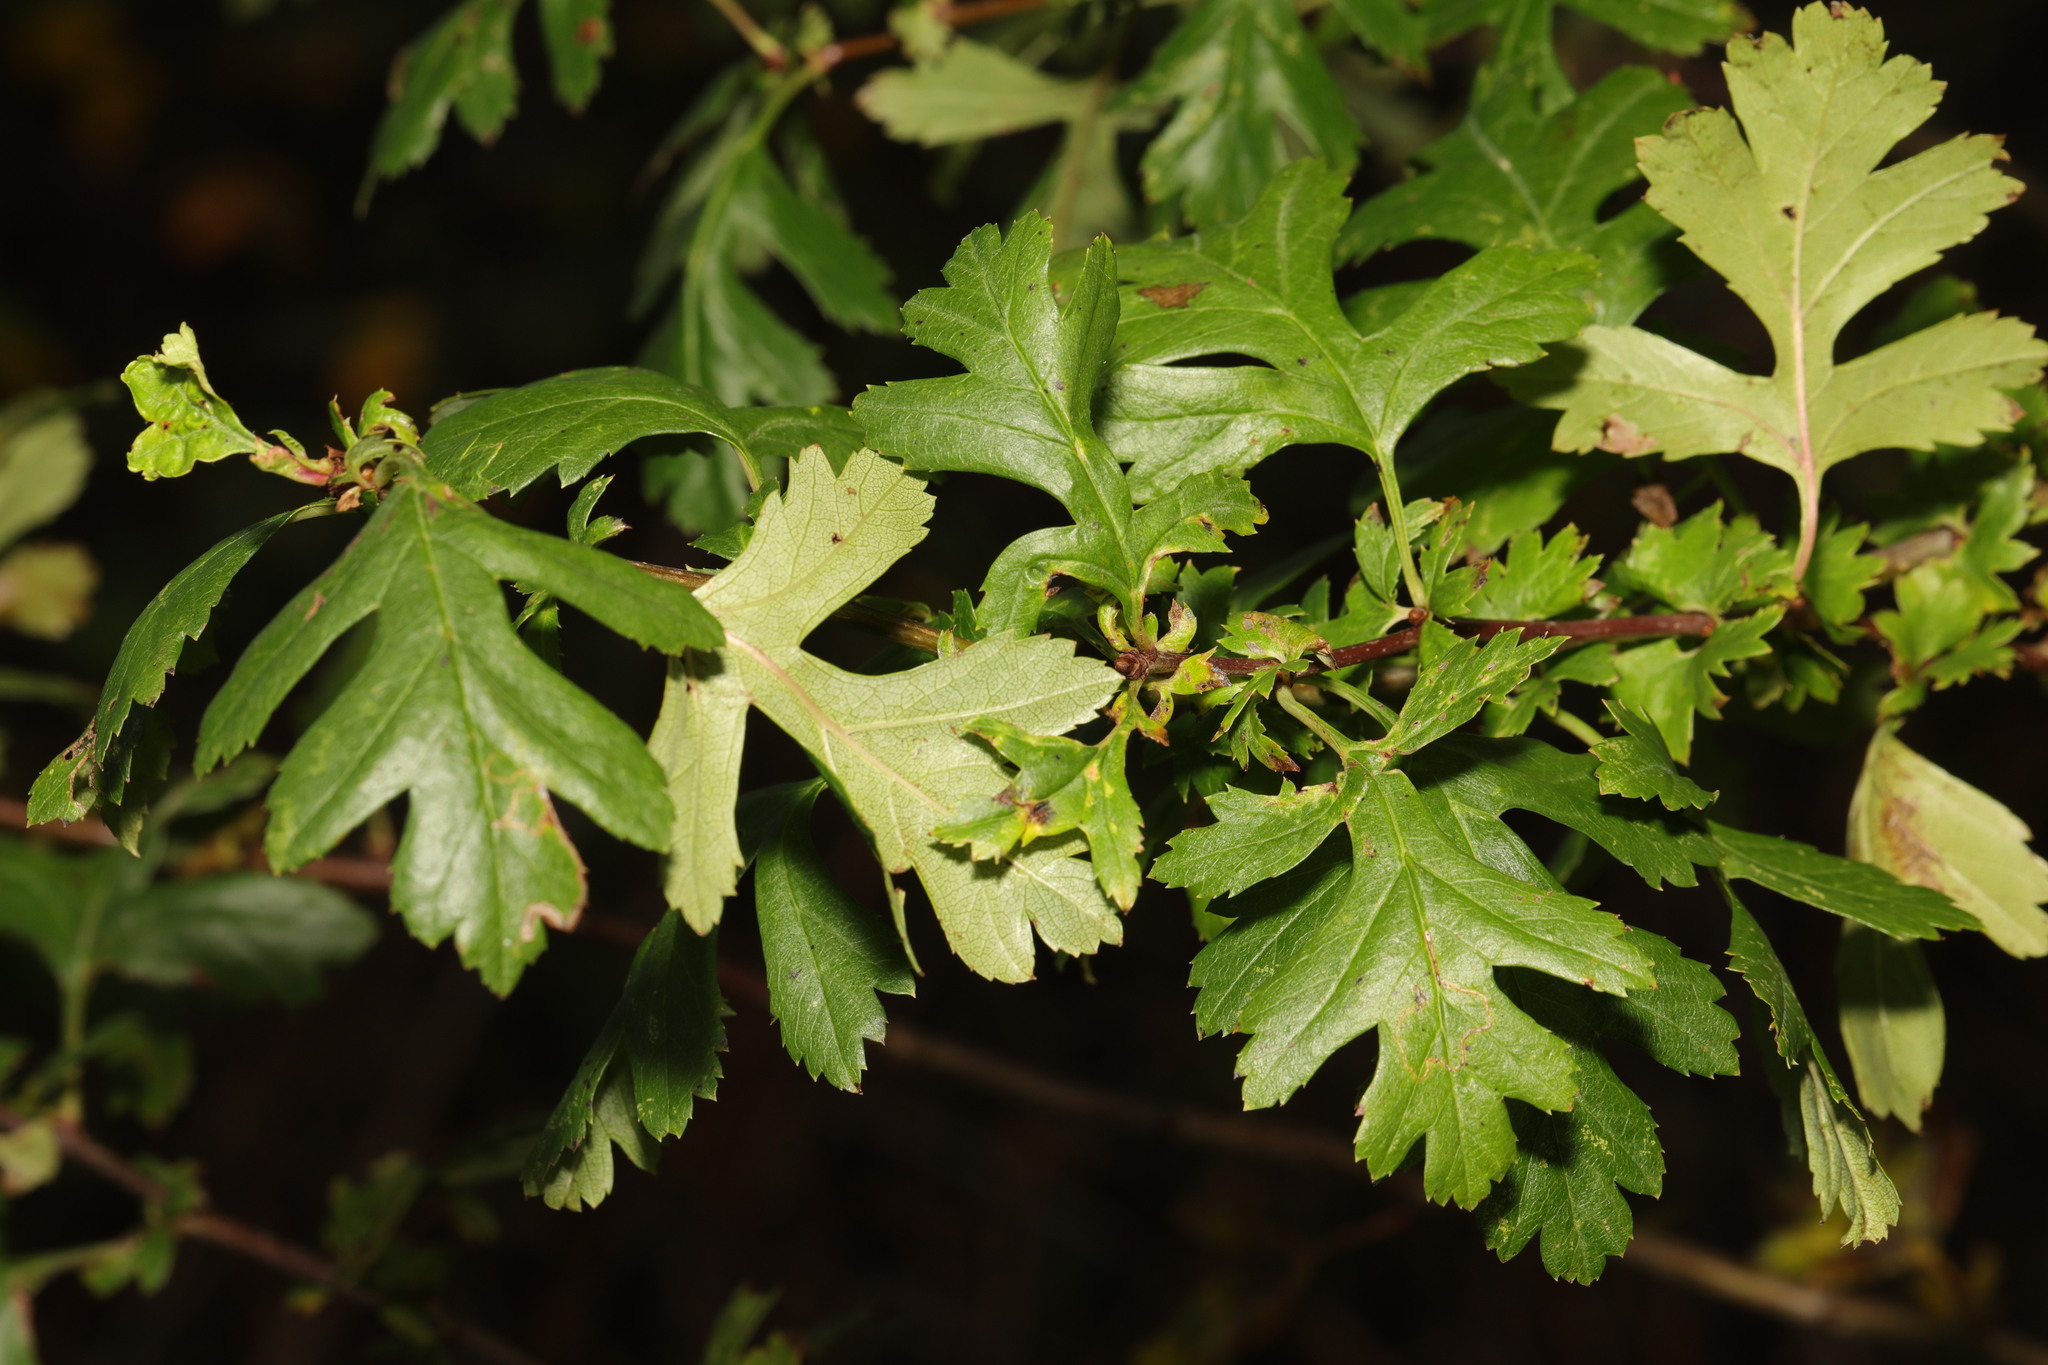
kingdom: Plantae
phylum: Tracheophyta
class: Magnoliopsida
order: Rosales
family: Rosaceae
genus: Crataegus
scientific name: Crataegus monogyna
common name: Hawthorn
